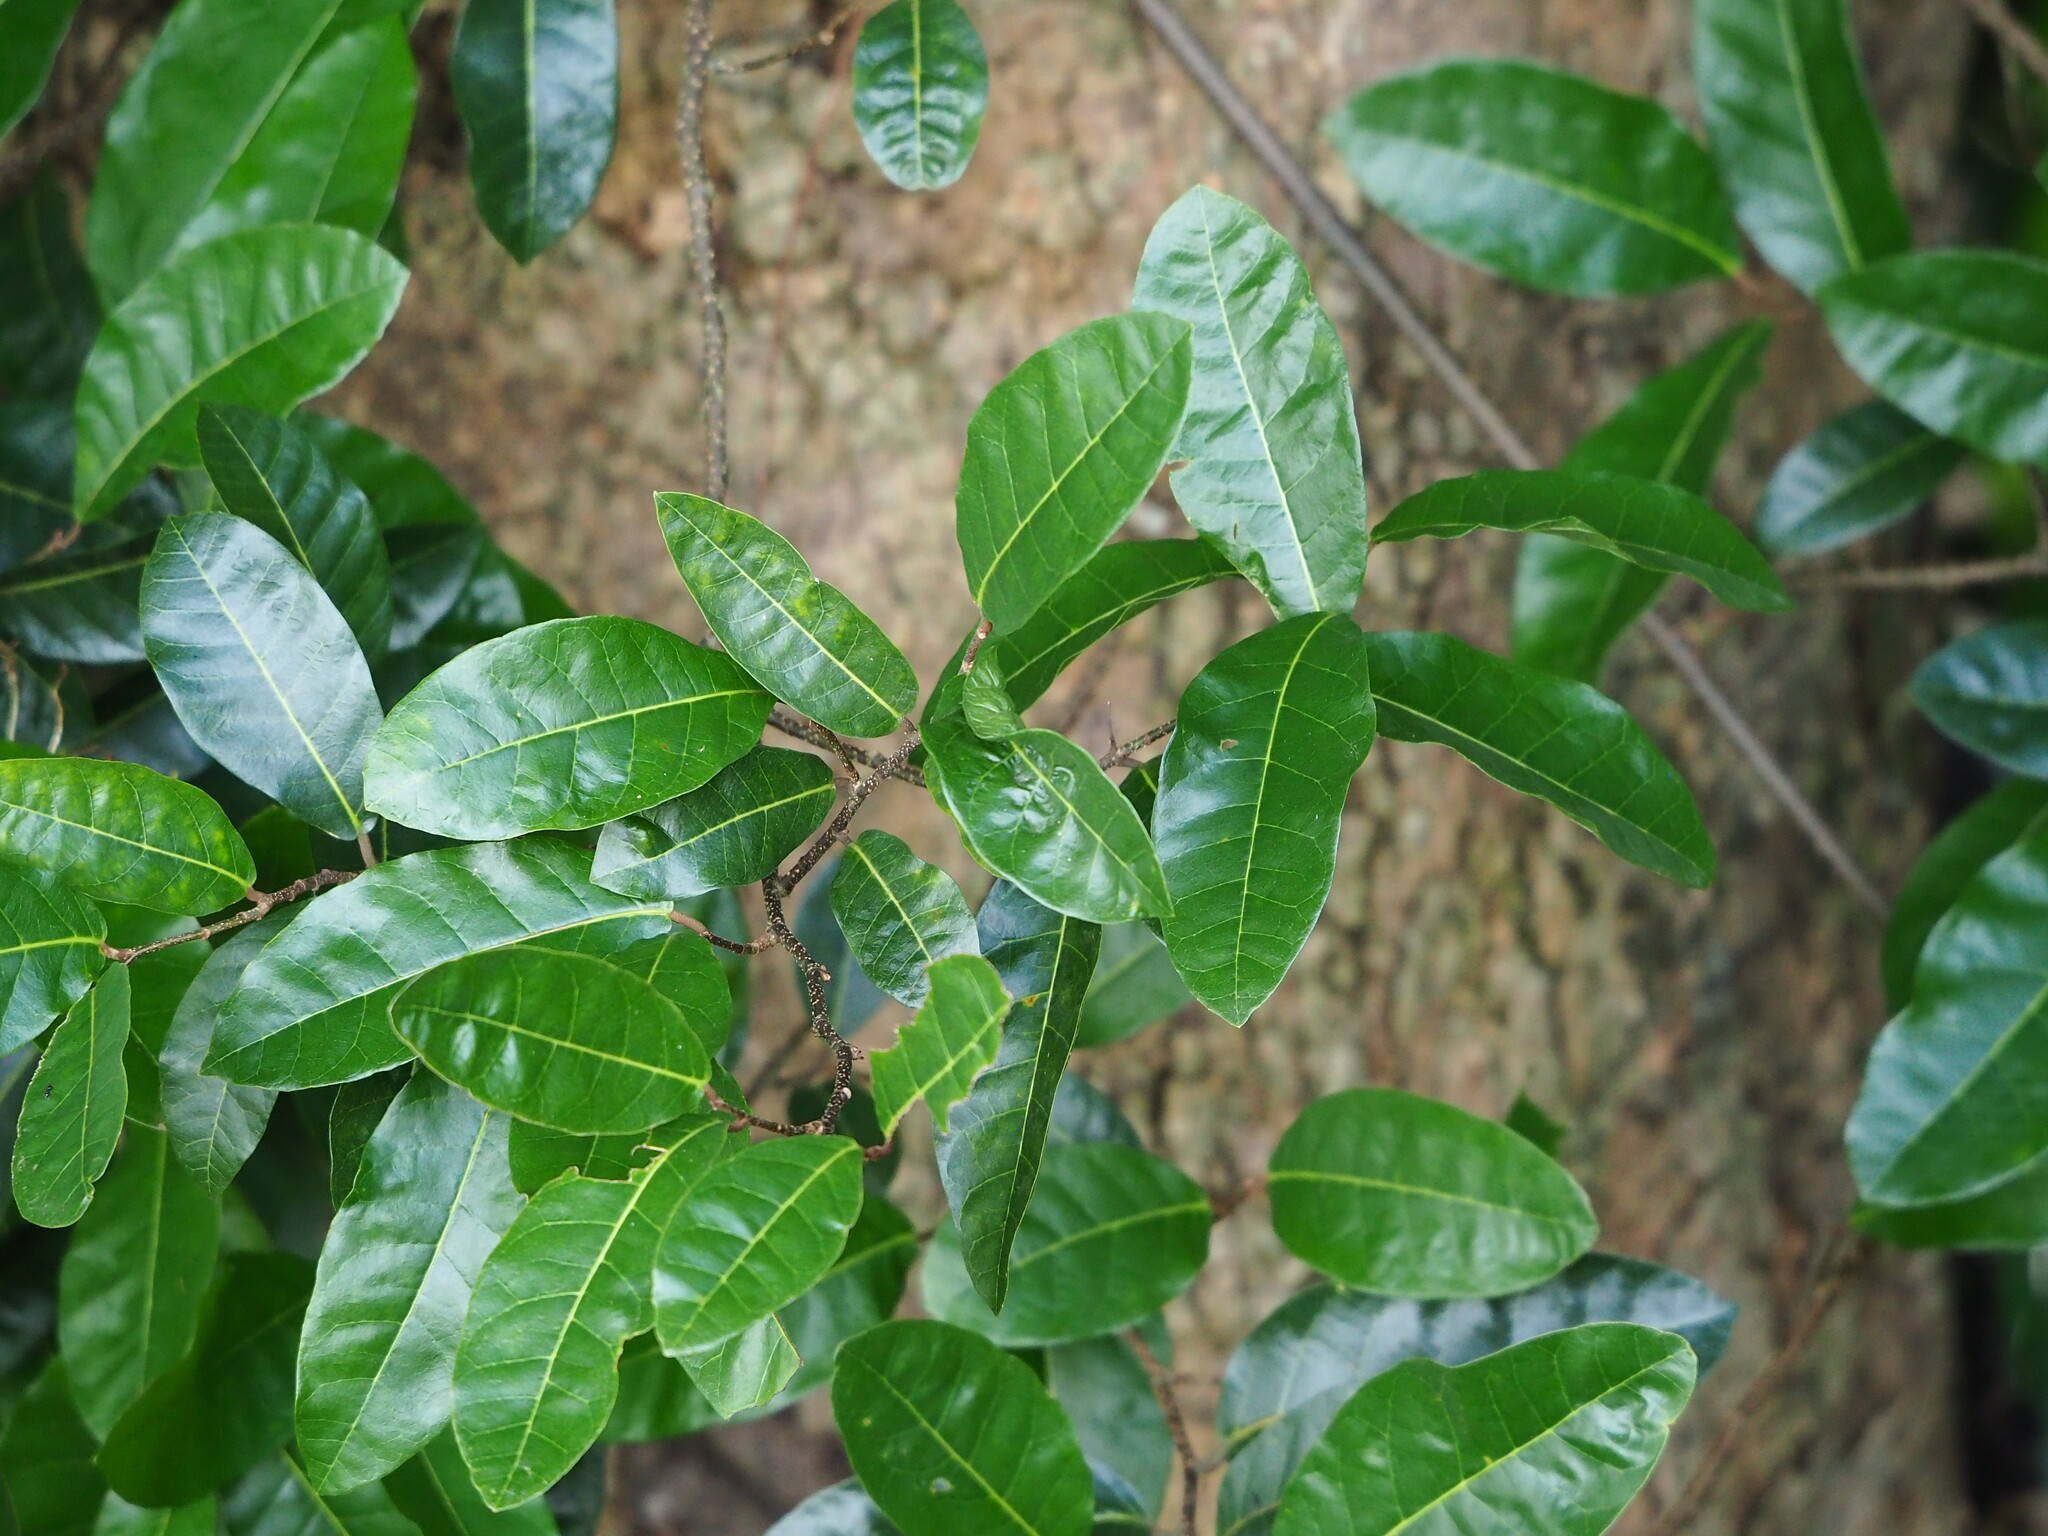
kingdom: Plantae
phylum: Tracheophyta
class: Magnoliopsida
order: Rosales
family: Moraceae
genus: Malaisia
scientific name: Malaisia scandens
